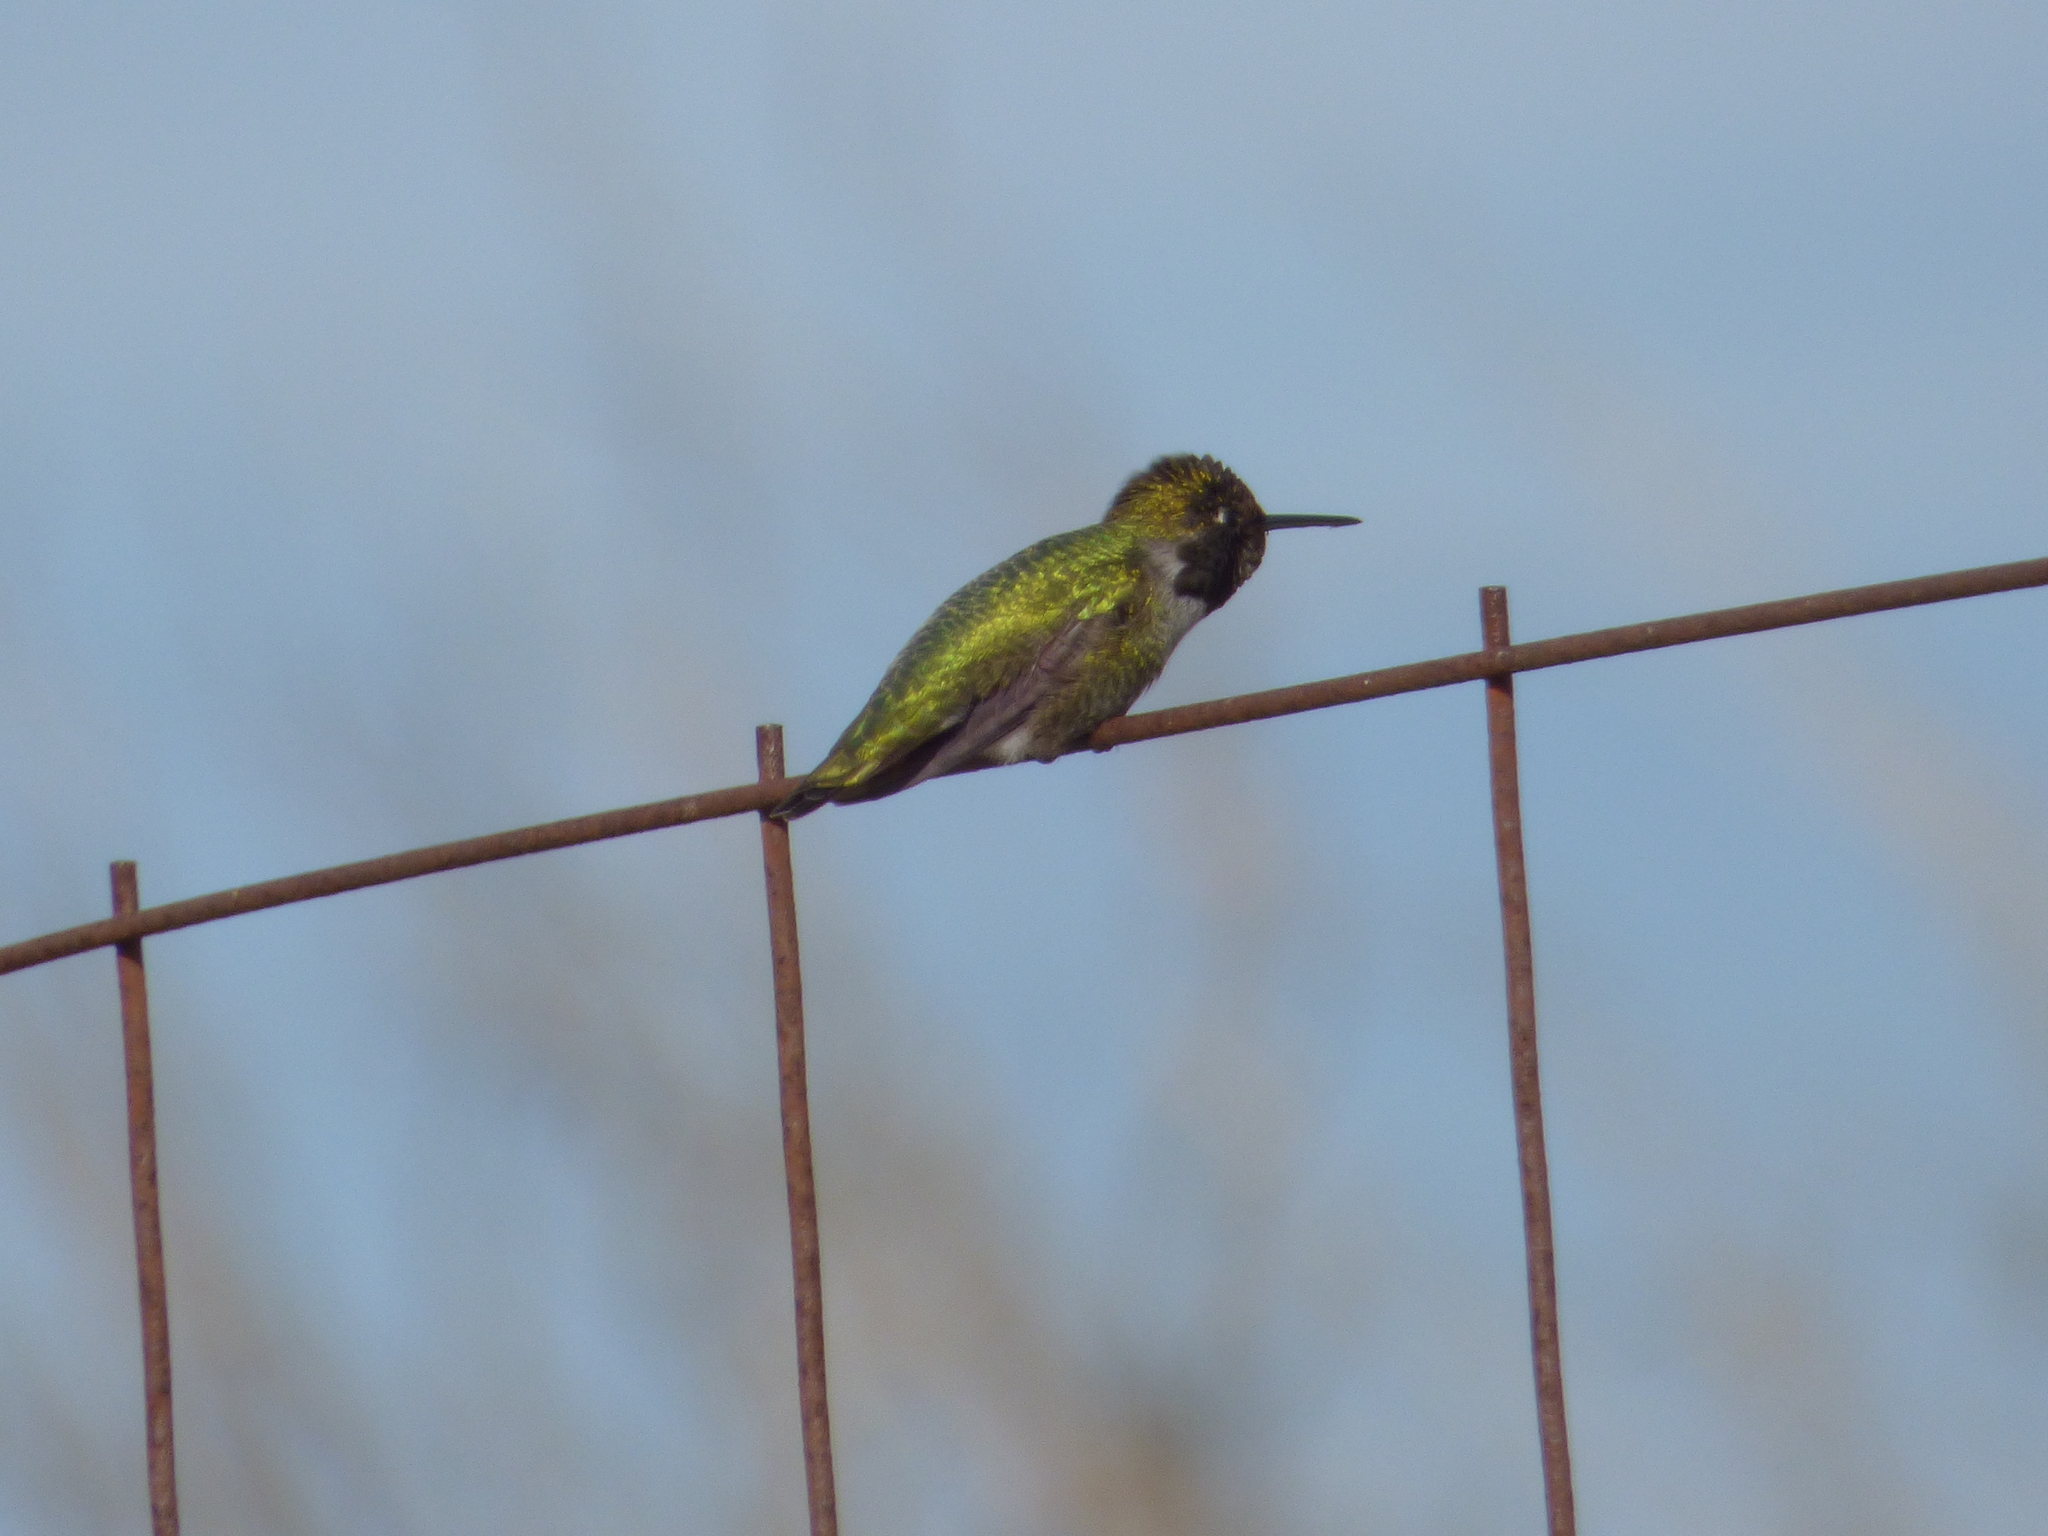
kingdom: Animalia
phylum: Chordata
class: Aves
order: Apodiformes
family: Trochilidae
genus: Calypte
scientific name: Calypte anna
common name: Anna's hummingbird
